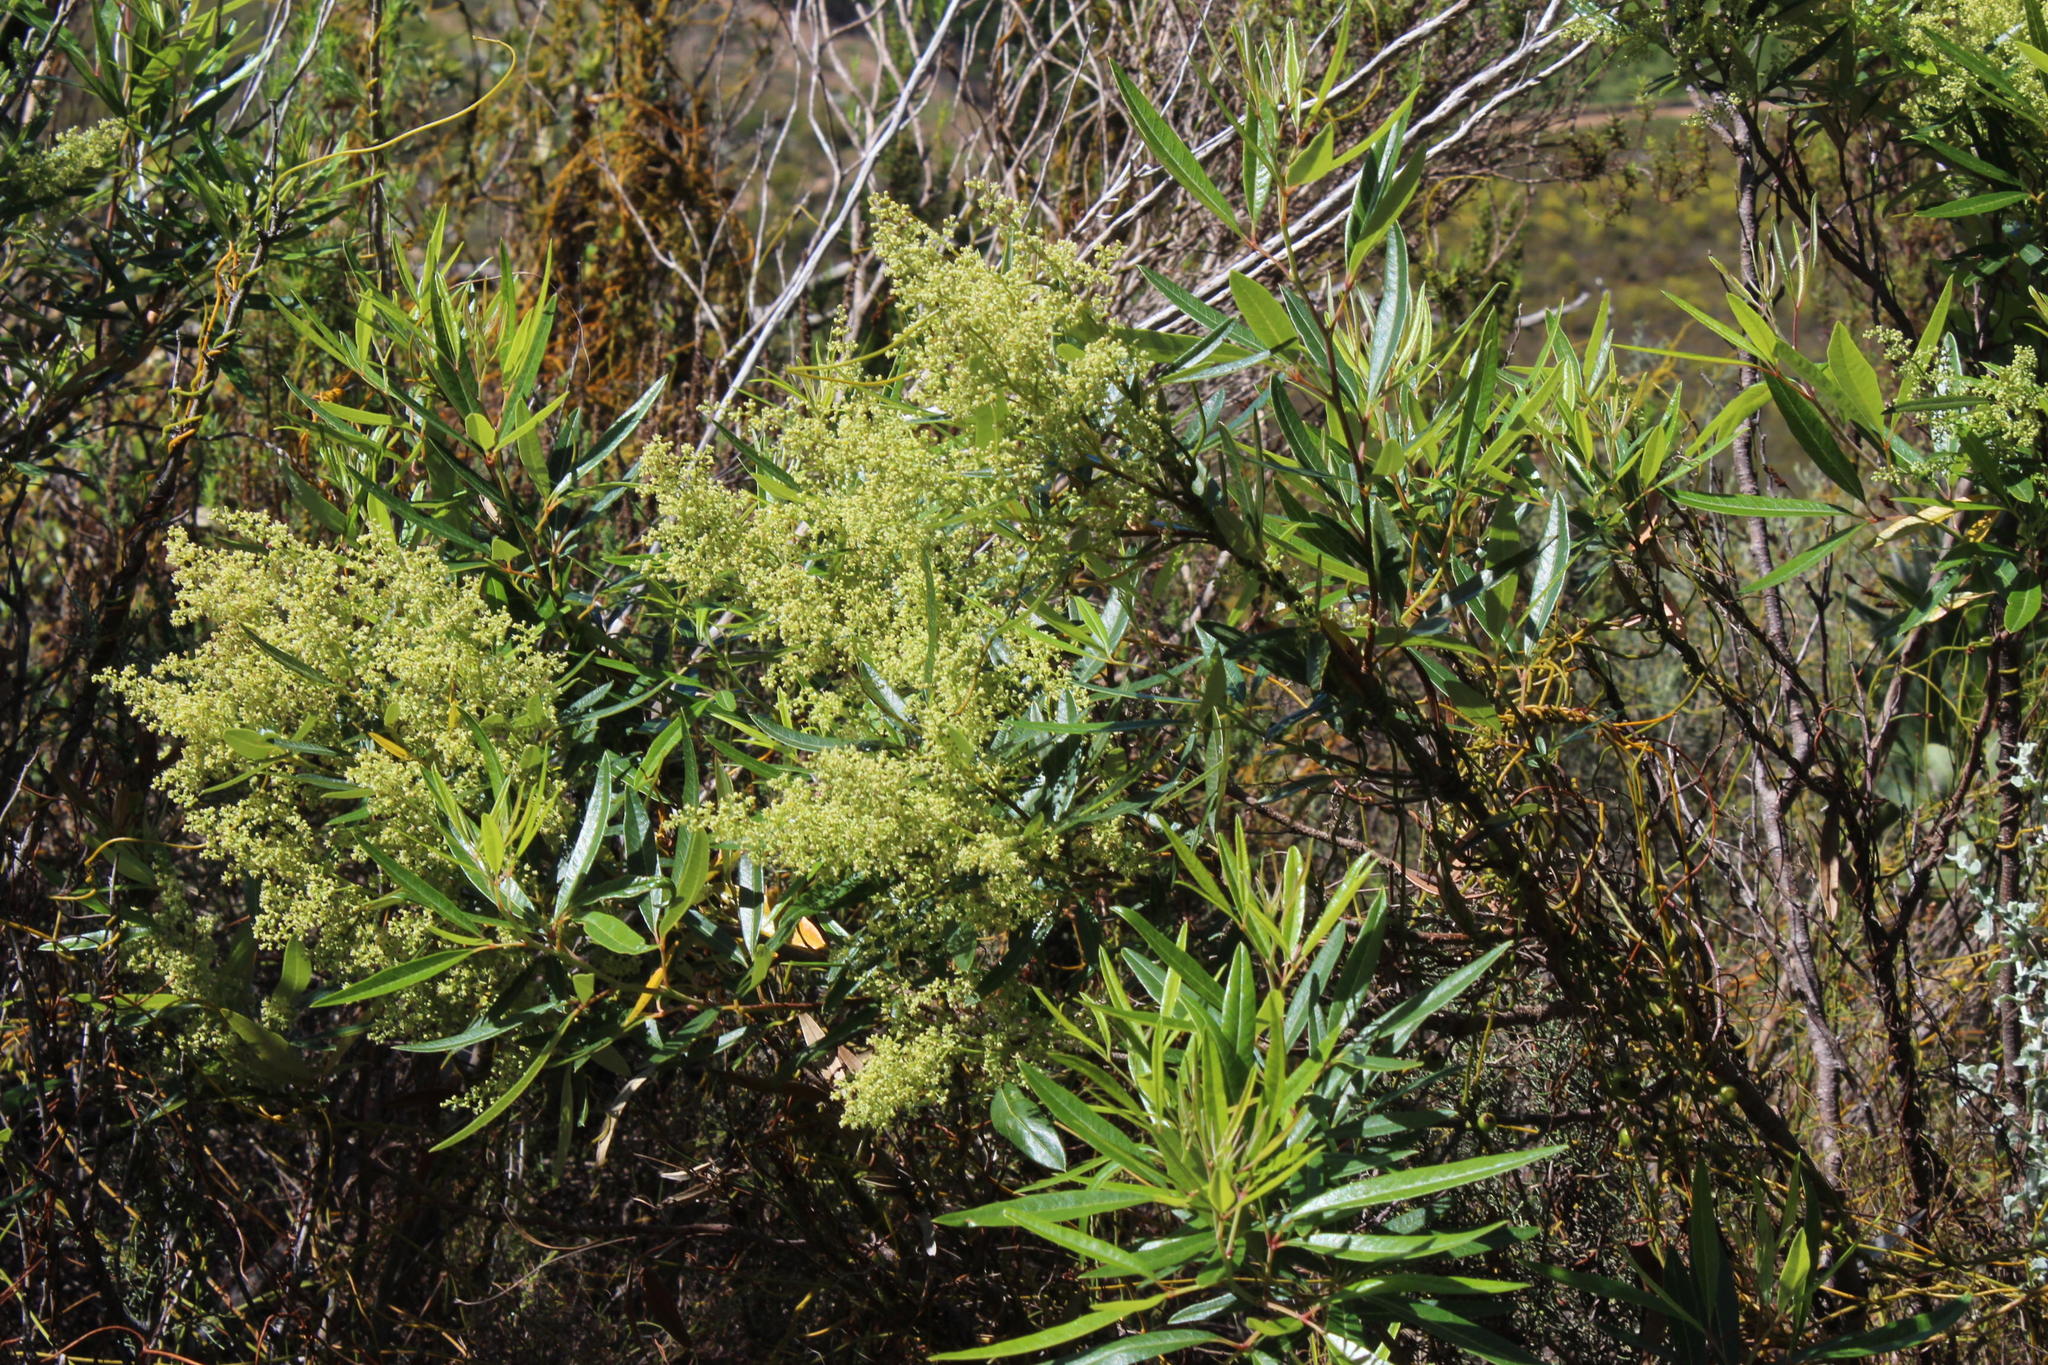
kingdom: Plantae
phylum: Tracheophyta
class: Magnoliopsida
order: Sapindales
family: Anacardiaceae
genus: Searsia
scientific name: Searsia angustifolia
